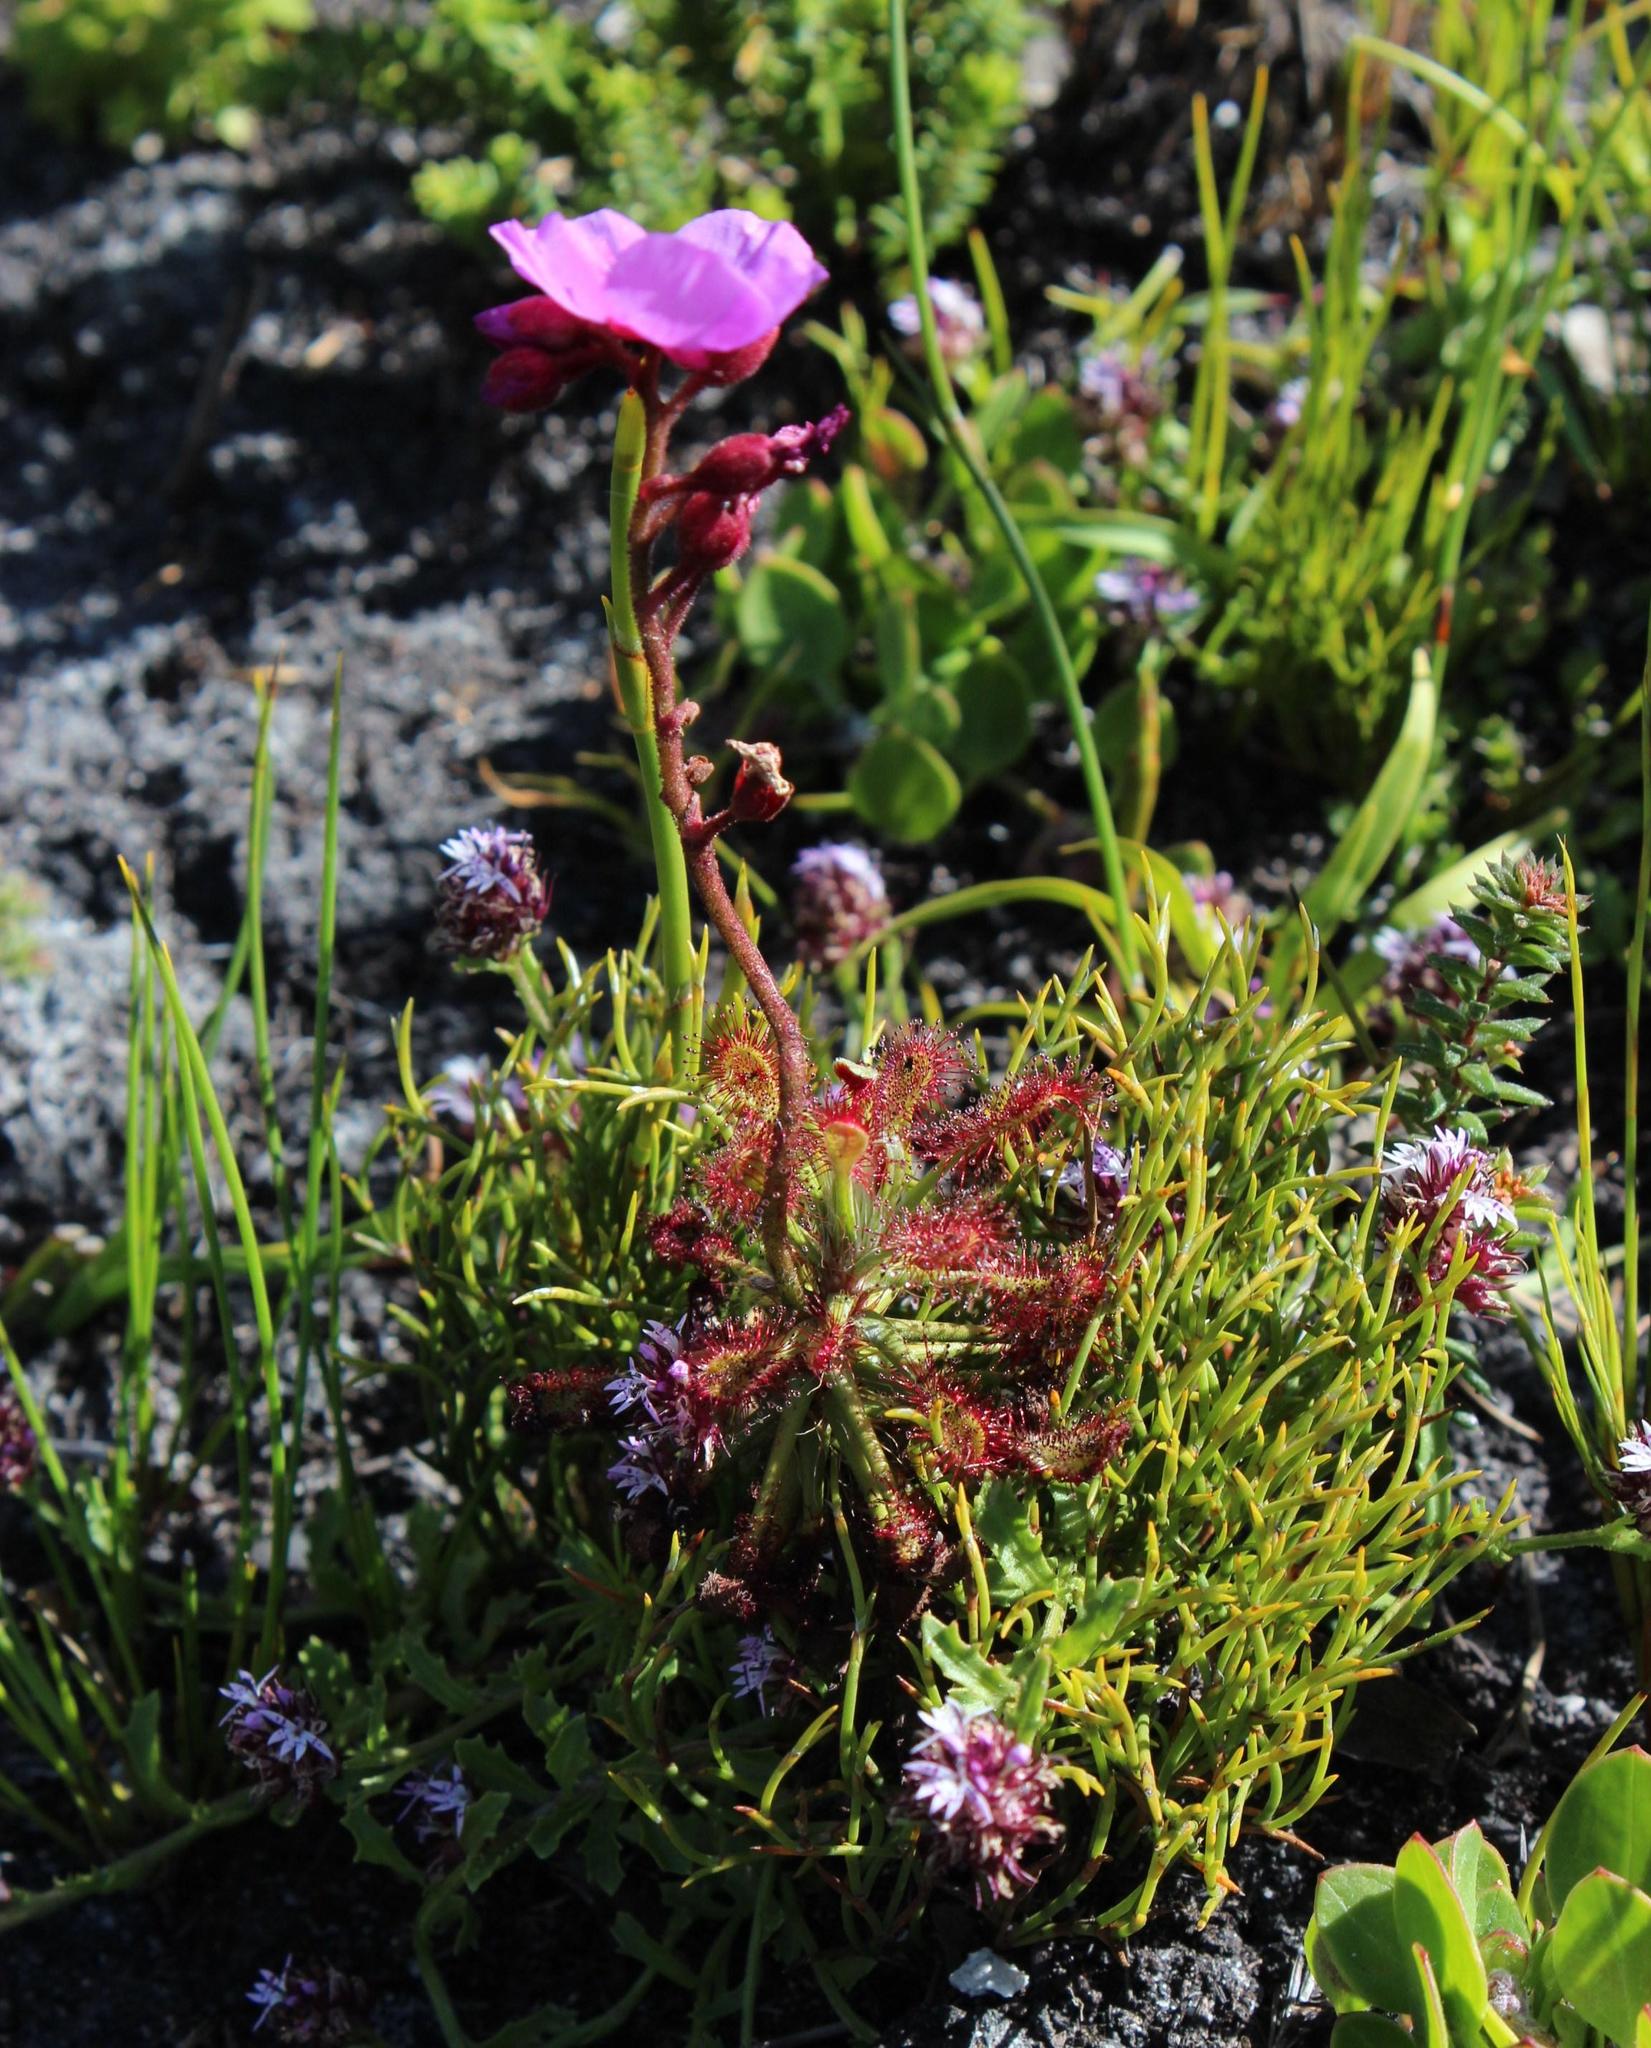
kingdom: Plantae
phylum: Tracheophyta
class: Magnoliopsida
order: Caryophyllales
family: Droseraceae
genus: Drosera
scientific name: Drosera glabripes
